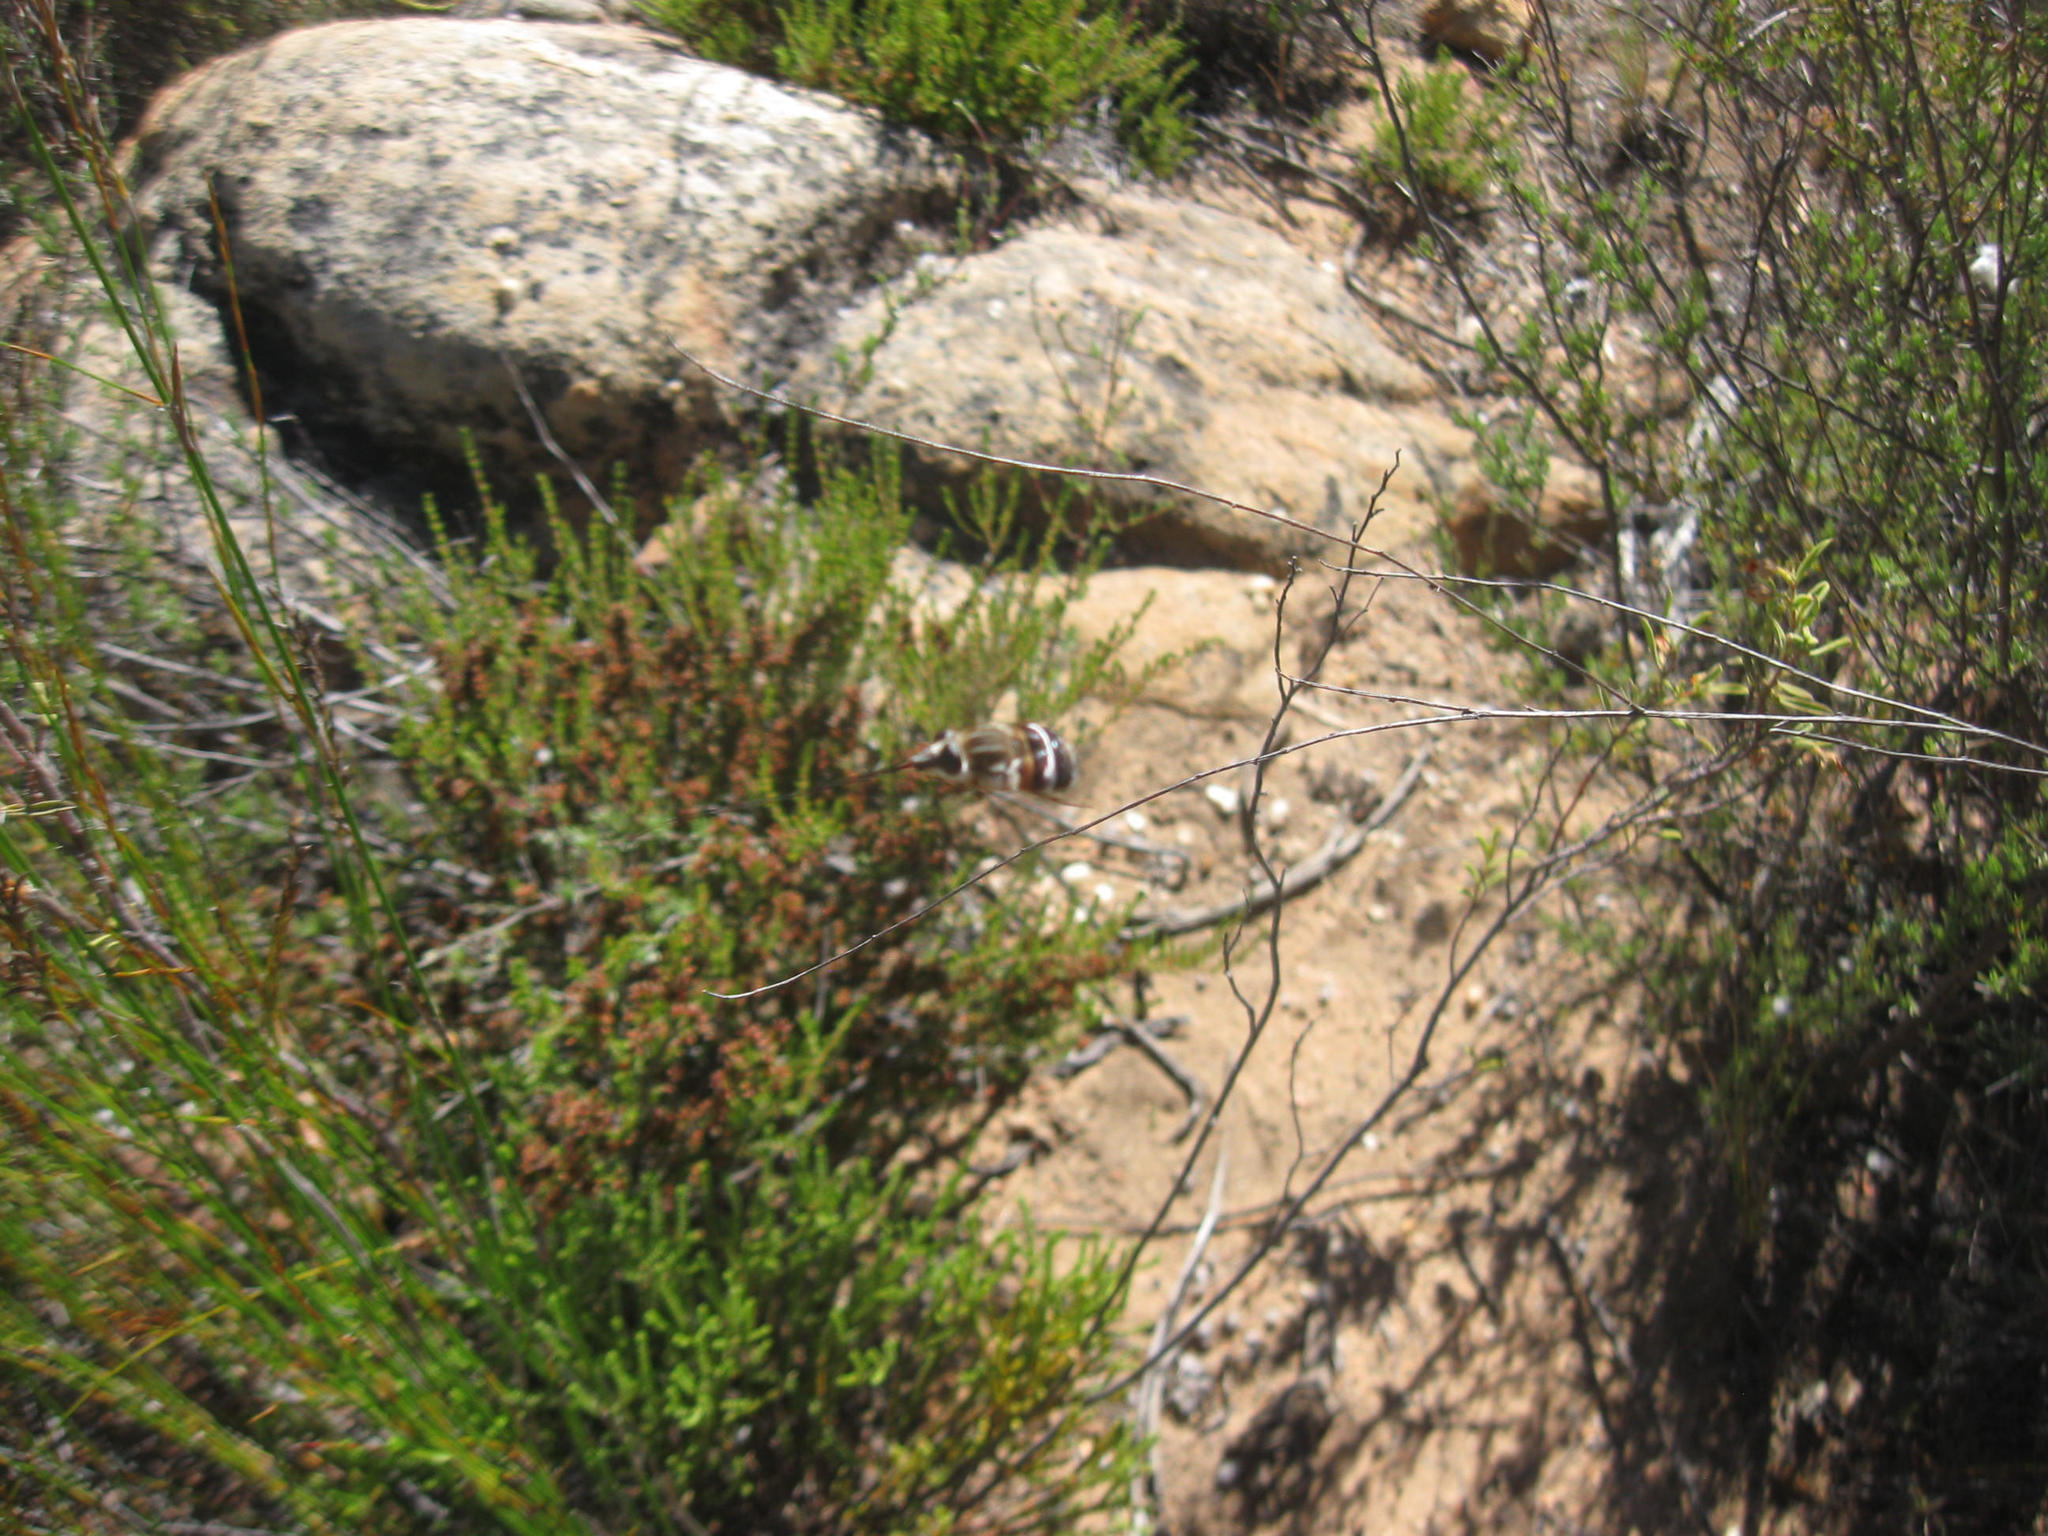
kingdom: Animalia
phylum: Arthropoda
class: Insecta
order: Diptera
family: Tabanidae
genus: Philoliche
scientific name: Philoliche gulosa
